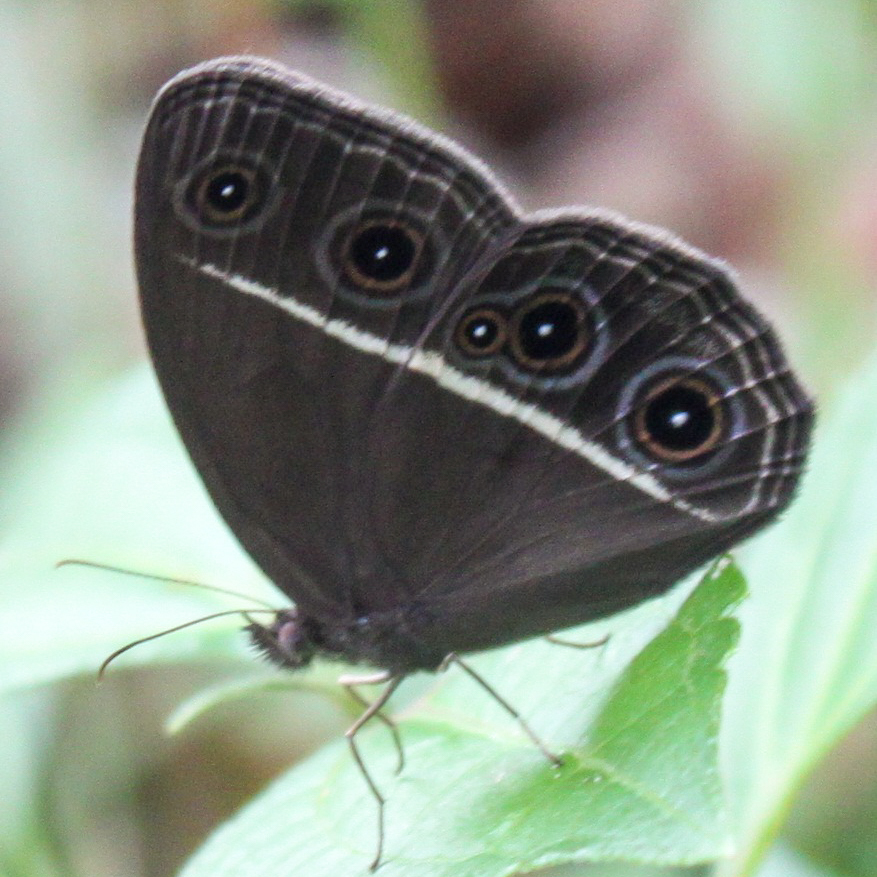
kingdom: Animalia
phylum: Arthropoda
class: Insecta
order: Lepidoptera
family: Nymphalidae
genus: Orsotriaena
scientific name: Orsotriaena medus
